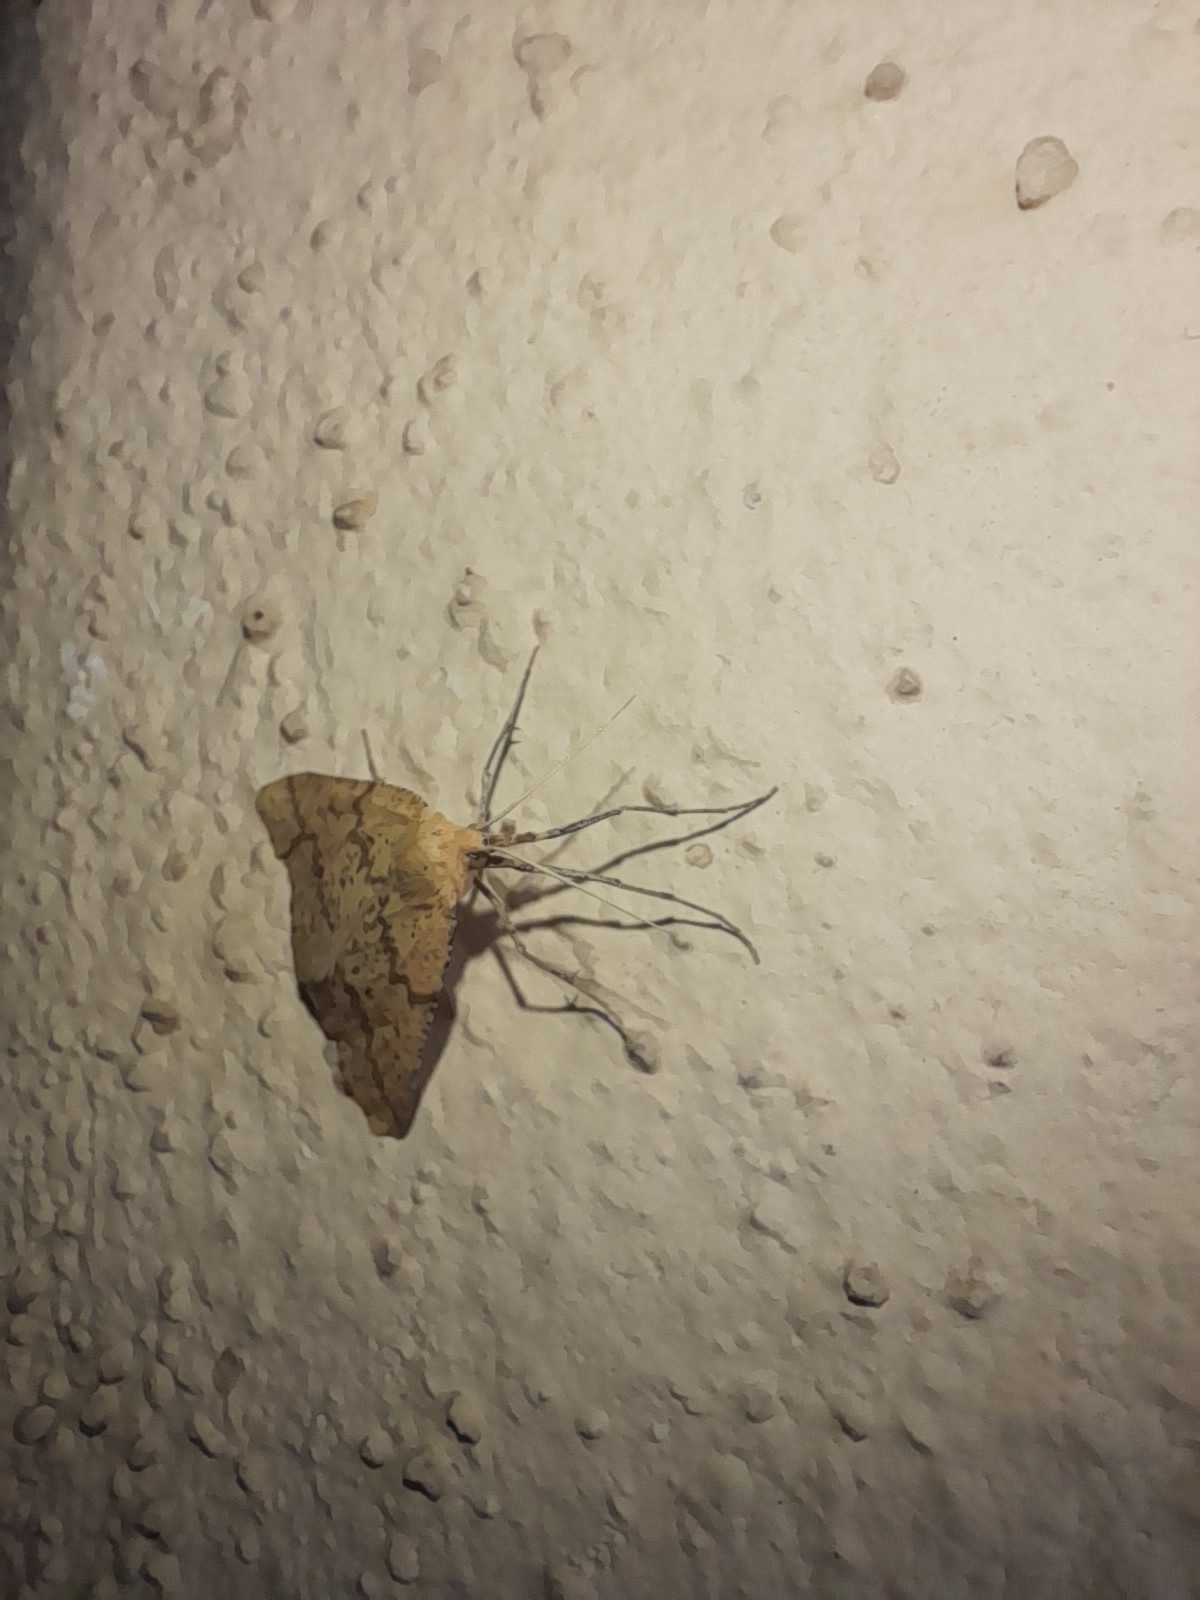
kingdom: Animalia
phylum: Arthropoda
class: Insecta
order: Lepidoptera
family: Geometridae
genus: Aspitates
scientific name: Aspitates ochrearia
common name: Yellow belle
